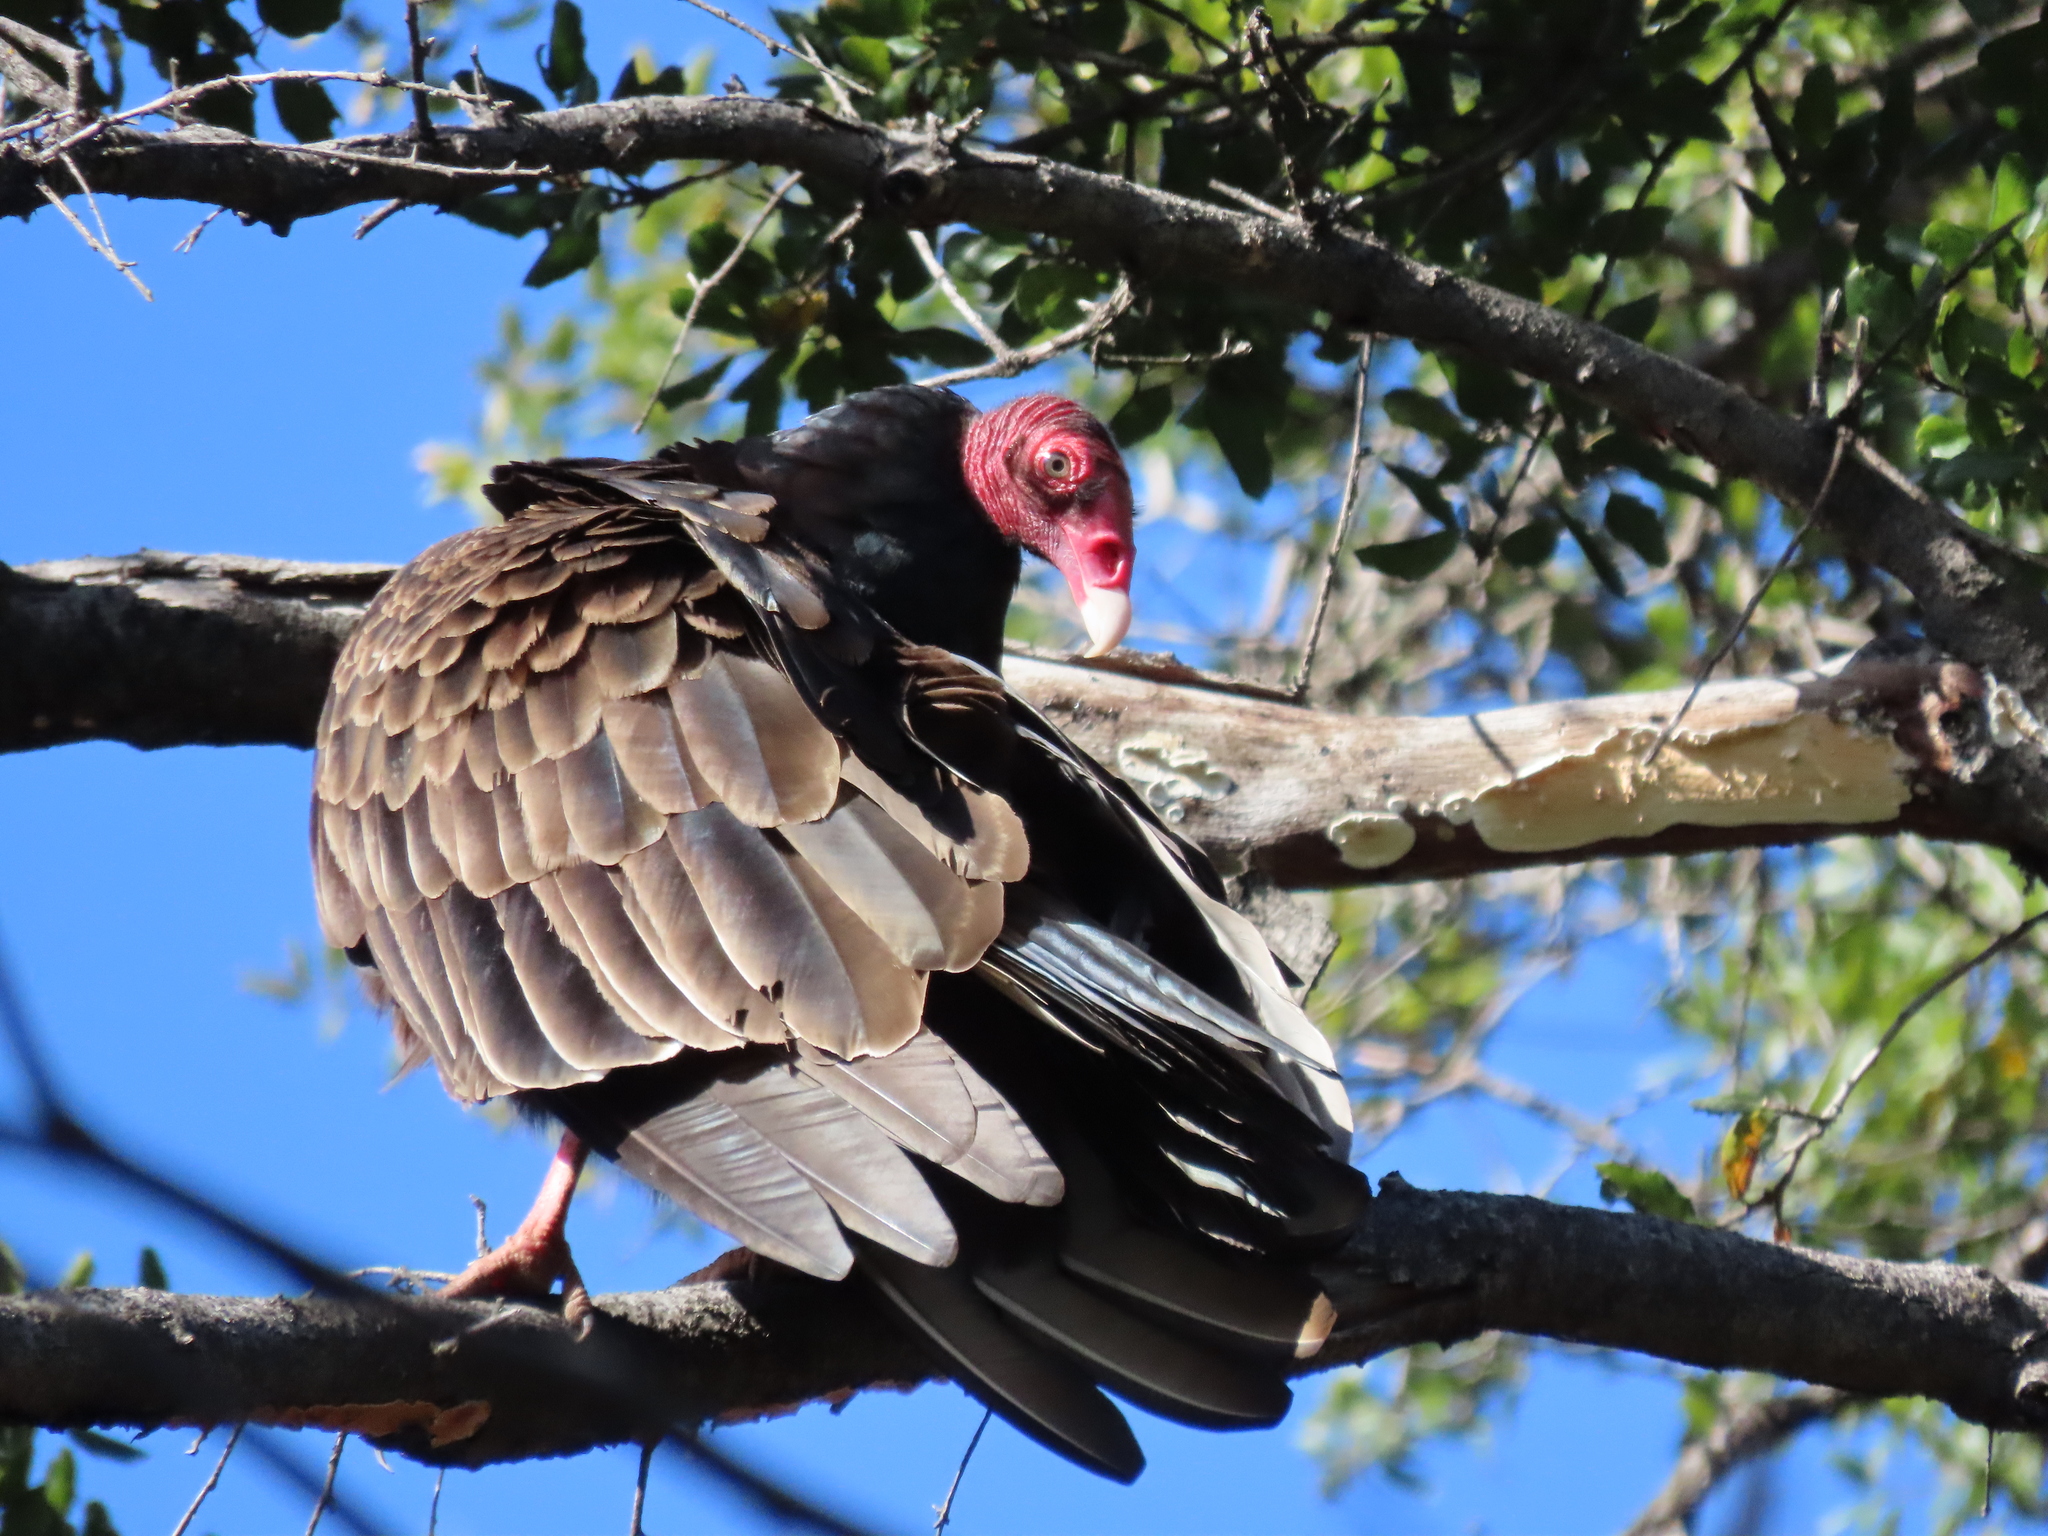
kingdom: Animalia
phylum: Chordata
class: Aves
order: Accipitriformes
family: Cathartidae
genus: Cathartes
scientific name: Cathartes aura
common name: Turkey vulture
